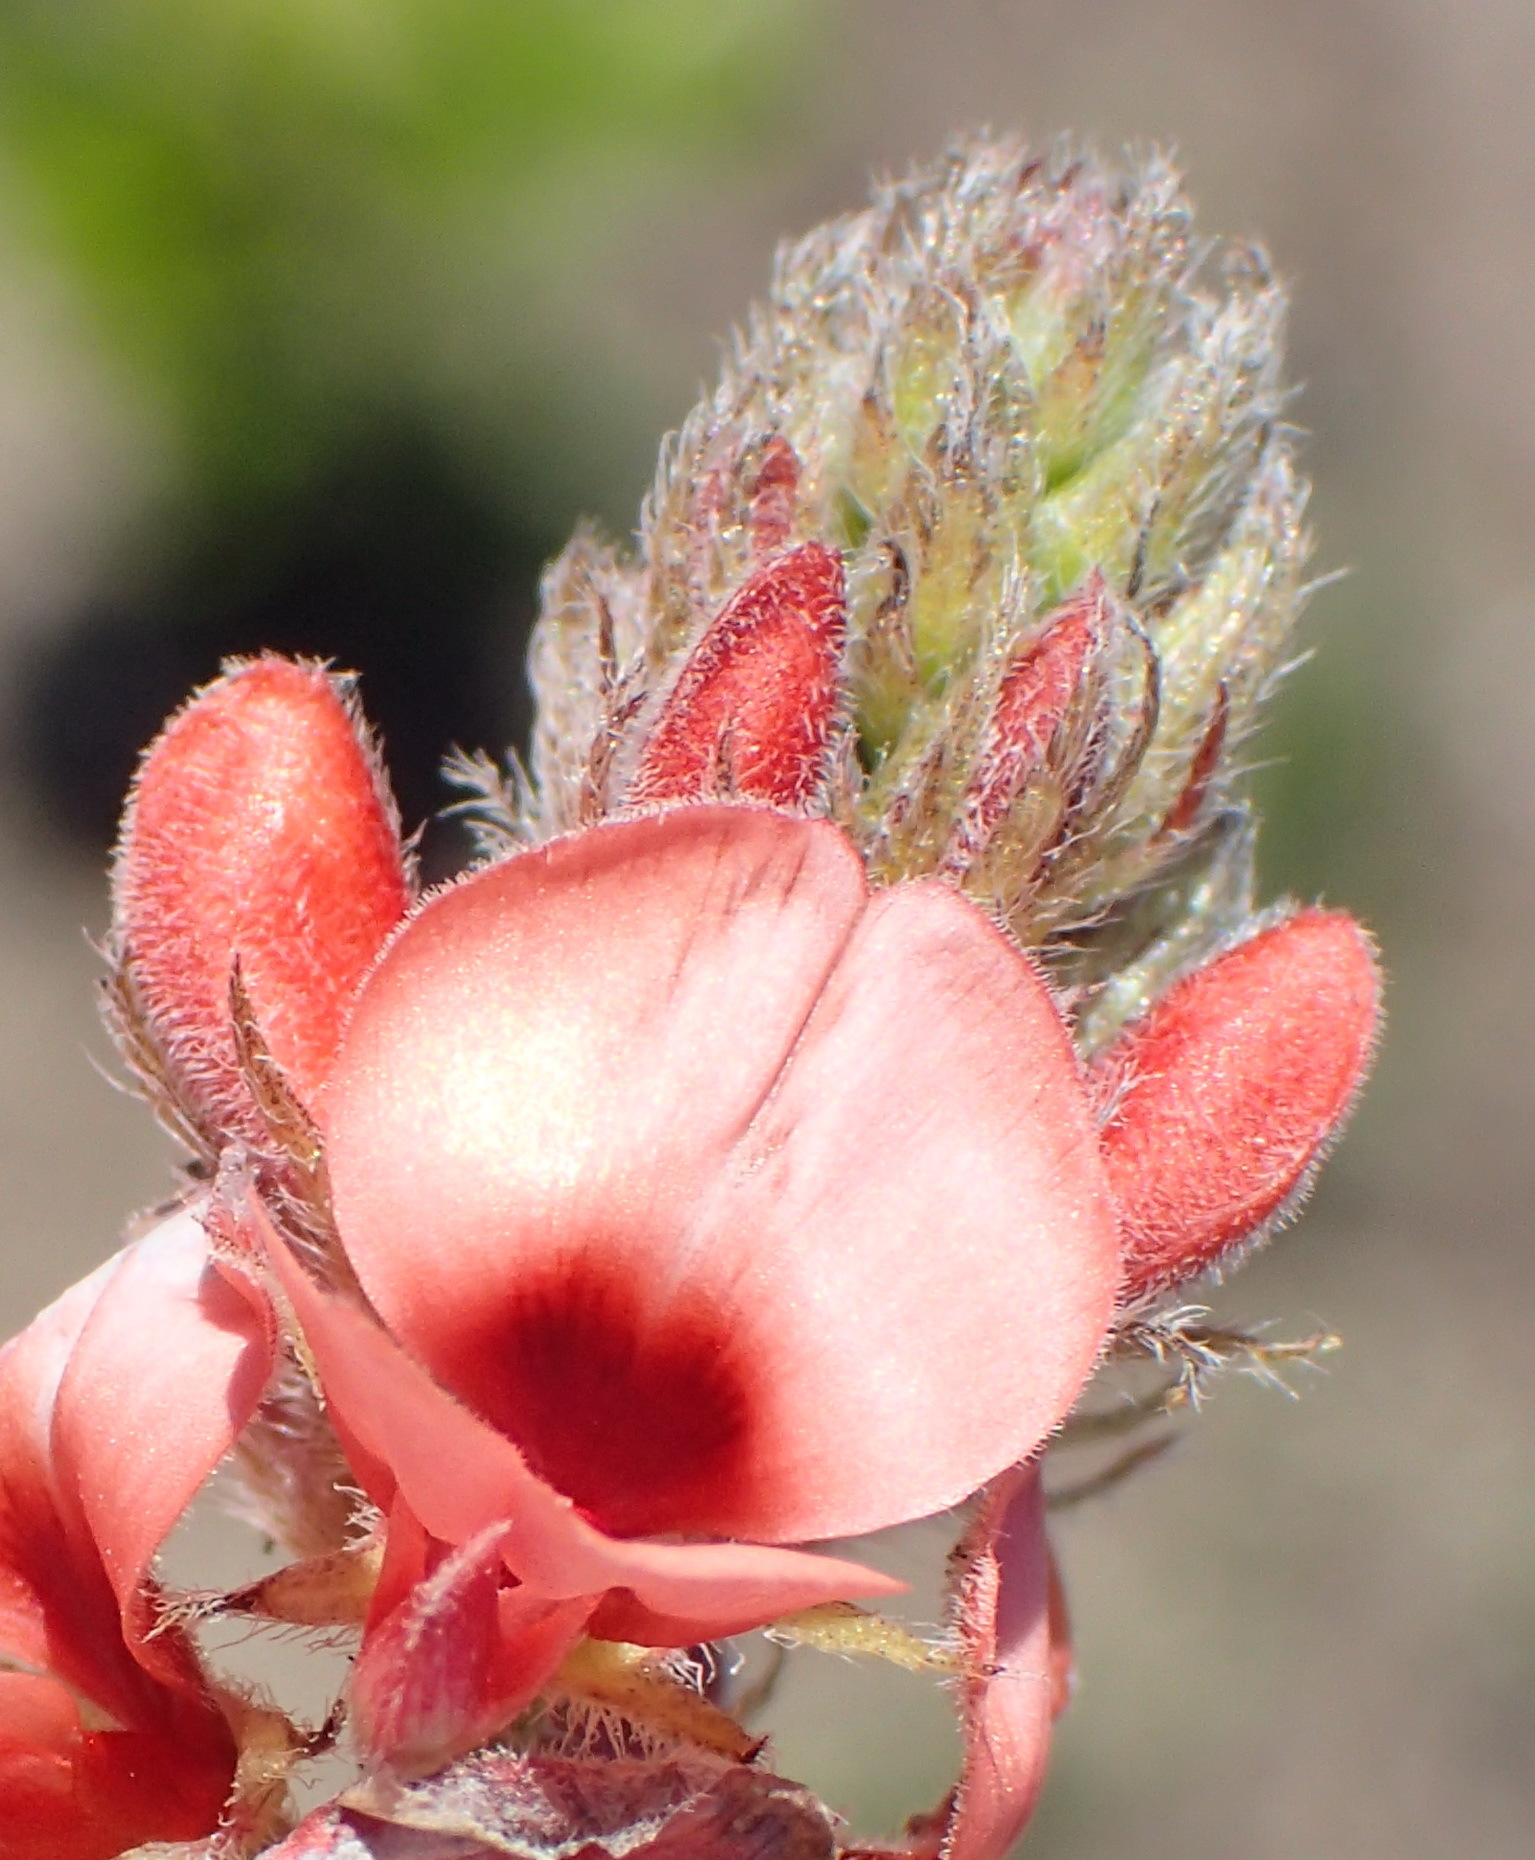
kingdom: Plantae
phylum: Tracheophyta
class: Magnoliopsida
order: Fabales
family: Fabaceae
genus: Indigofera
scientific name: Indigofera porrecta
